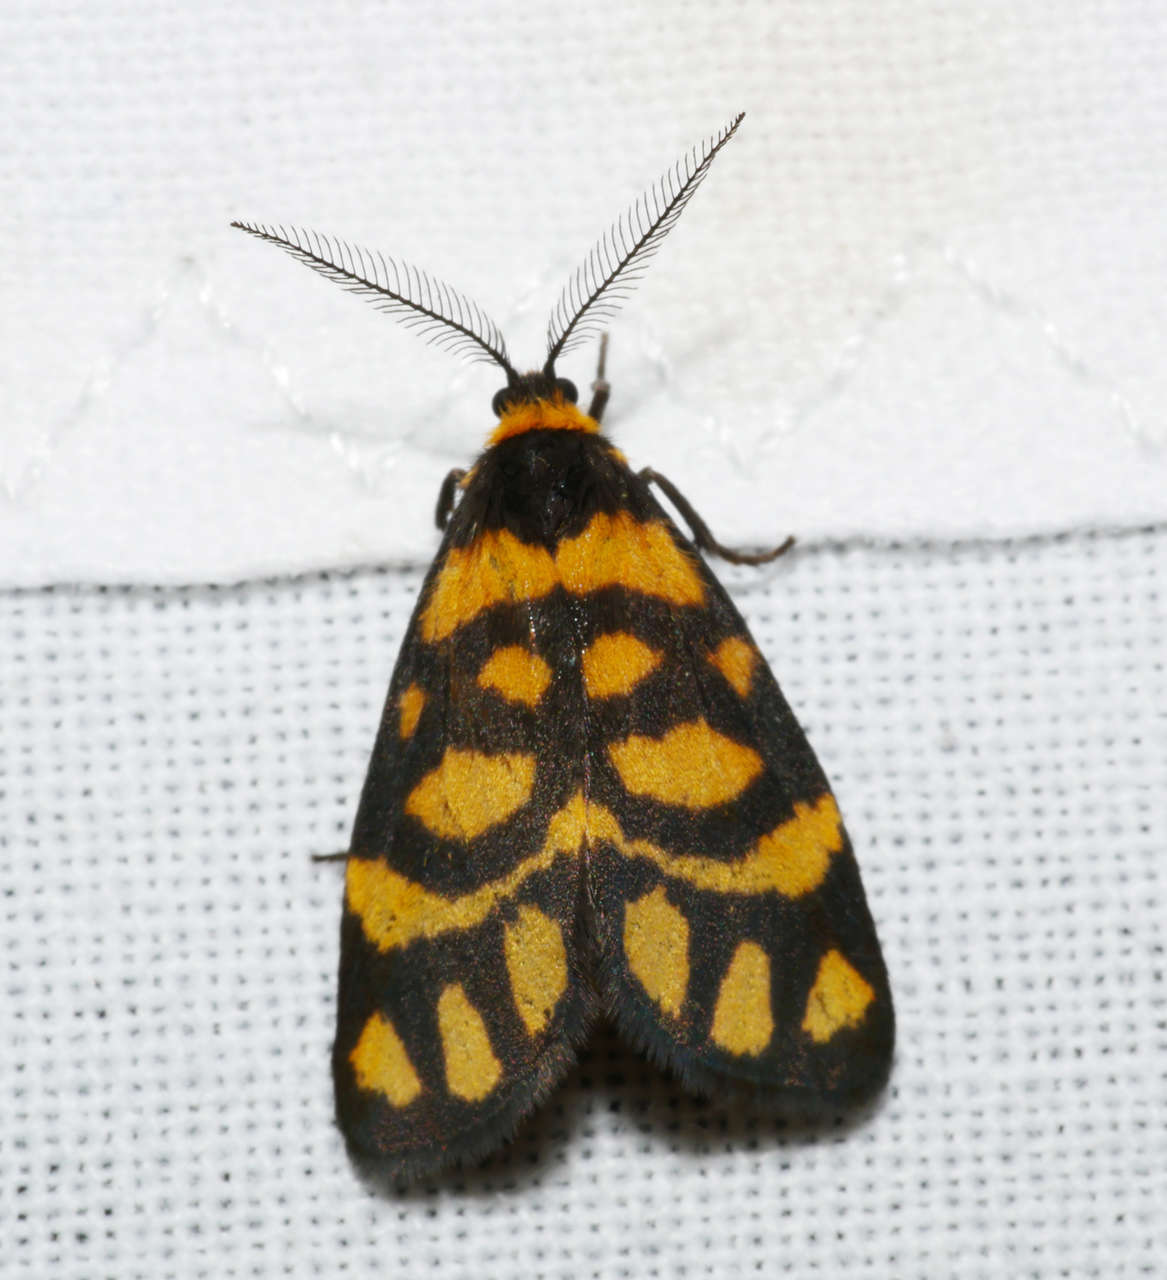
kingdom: Animalia
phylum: Arthropoda
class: Insecta
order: Lepidoptera
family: Erebidae
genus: Asura
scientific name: Asura lydia
